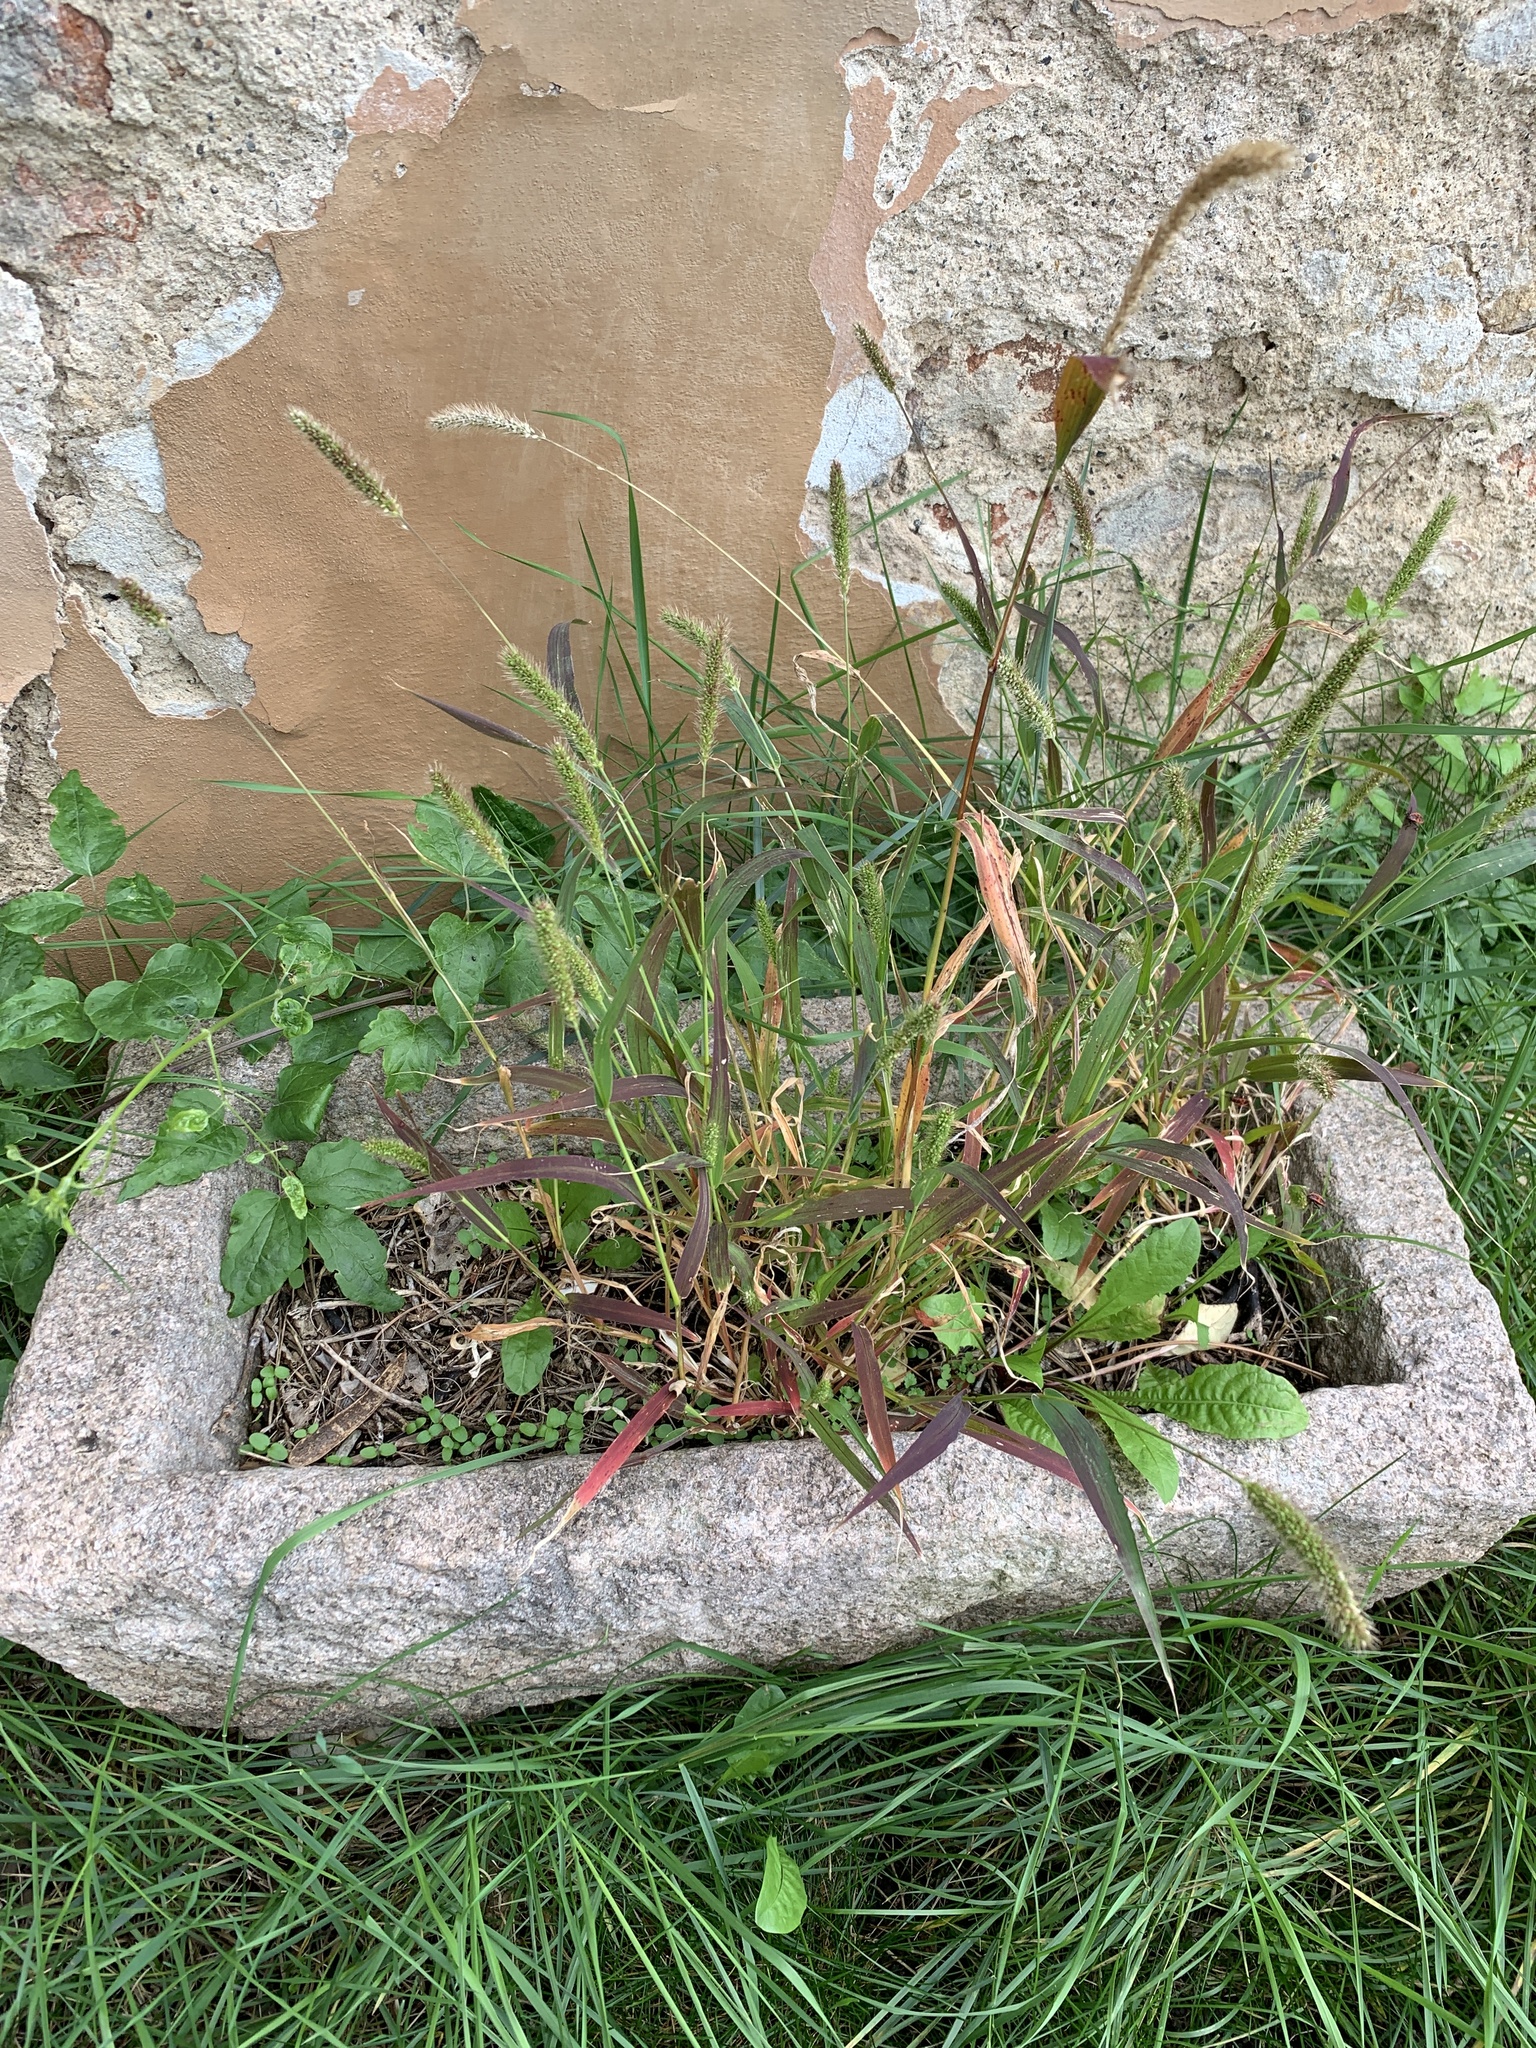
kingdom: Plantae
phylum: Tracheophyta
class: Liliopsida
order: Poales
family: Poaceae
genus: Setaria
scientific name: Setaria viridis
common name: Green bristlegrass
